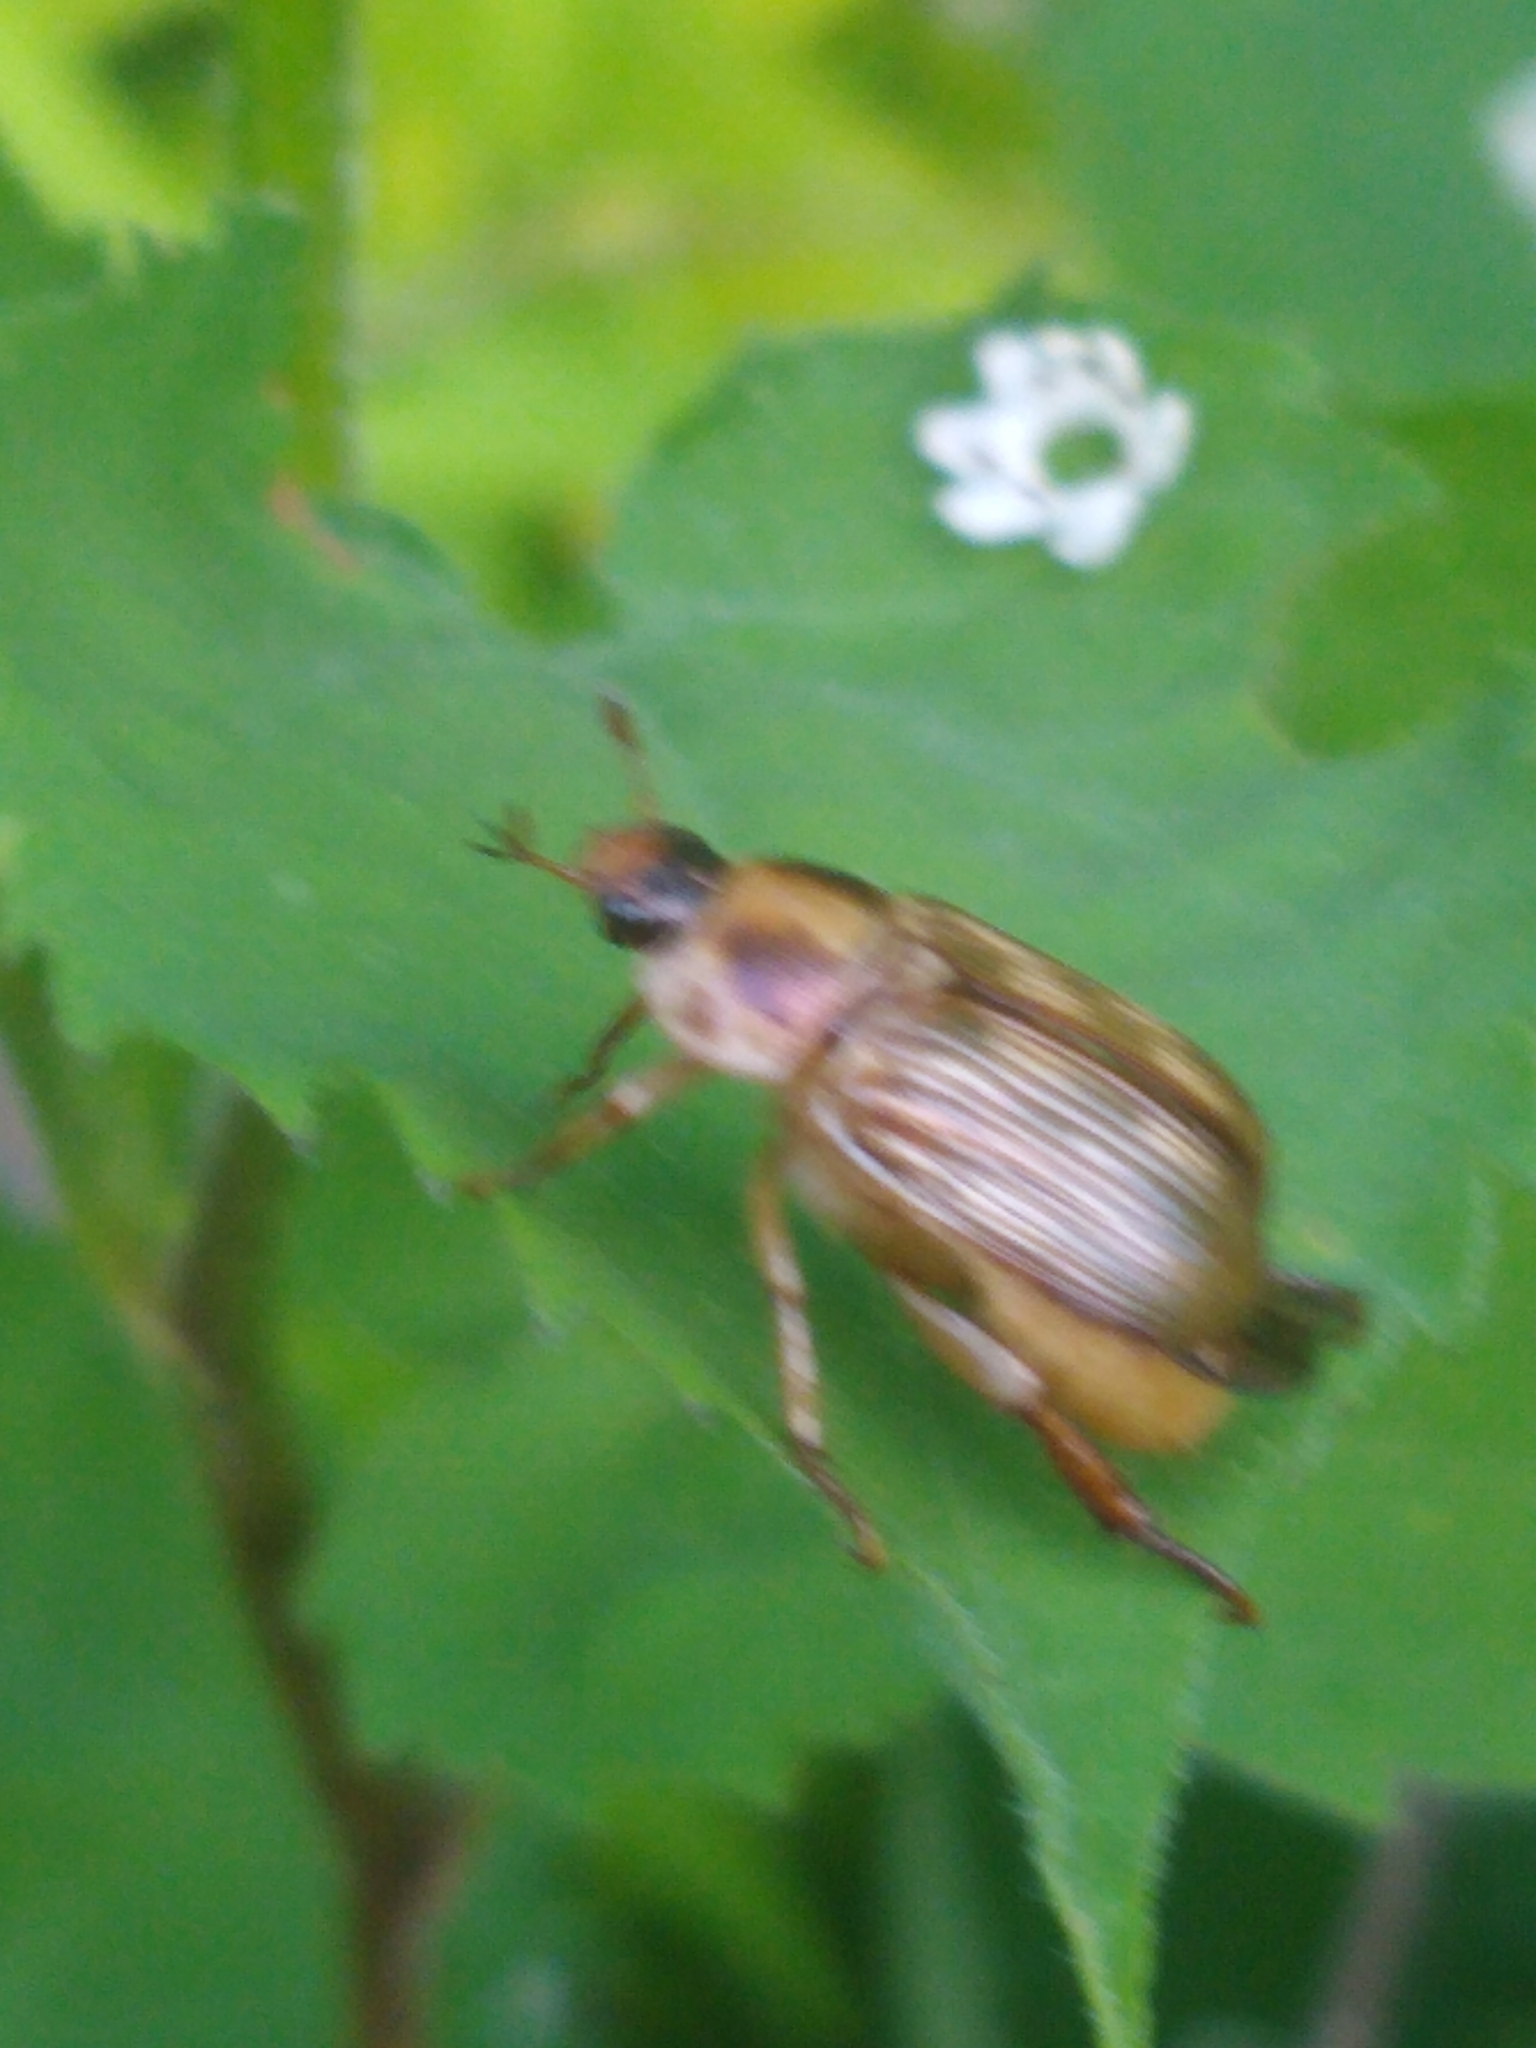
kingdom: Animalia
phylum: Arthropoda
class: Insecta
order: Coleoptera
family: Scarabaeidae
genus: Exomala
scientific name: Exomala orientalis
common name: Oriental beetle
